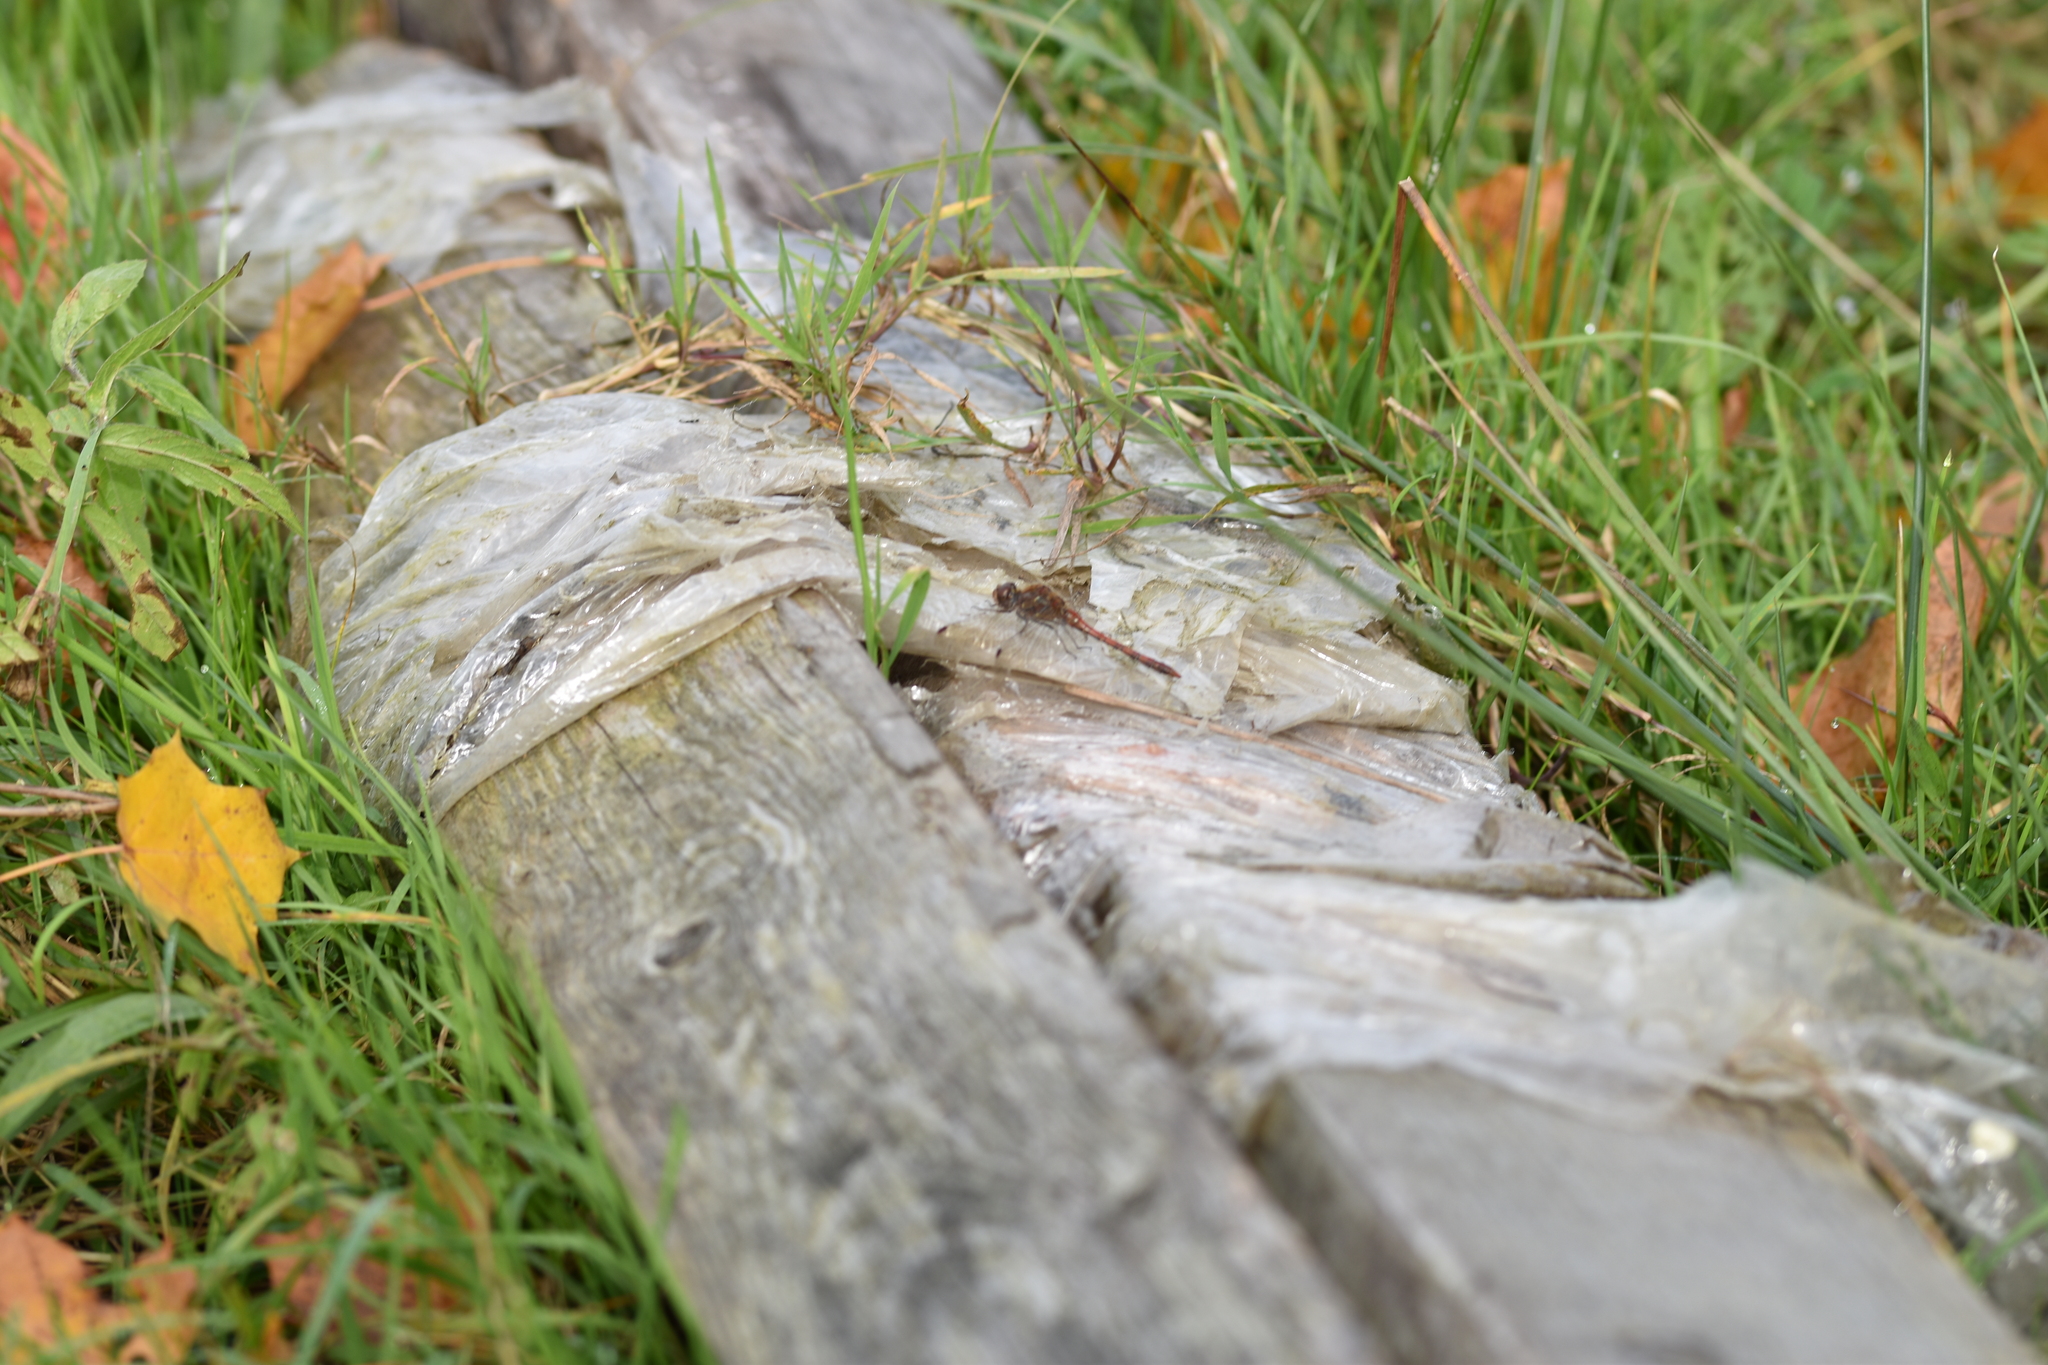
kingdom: Animalia
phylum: Arthropoda
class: Insecta
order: Odonata
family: Libellulidae
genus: Sympetrum
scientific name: Sympetrum striolatum
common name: Common darter
